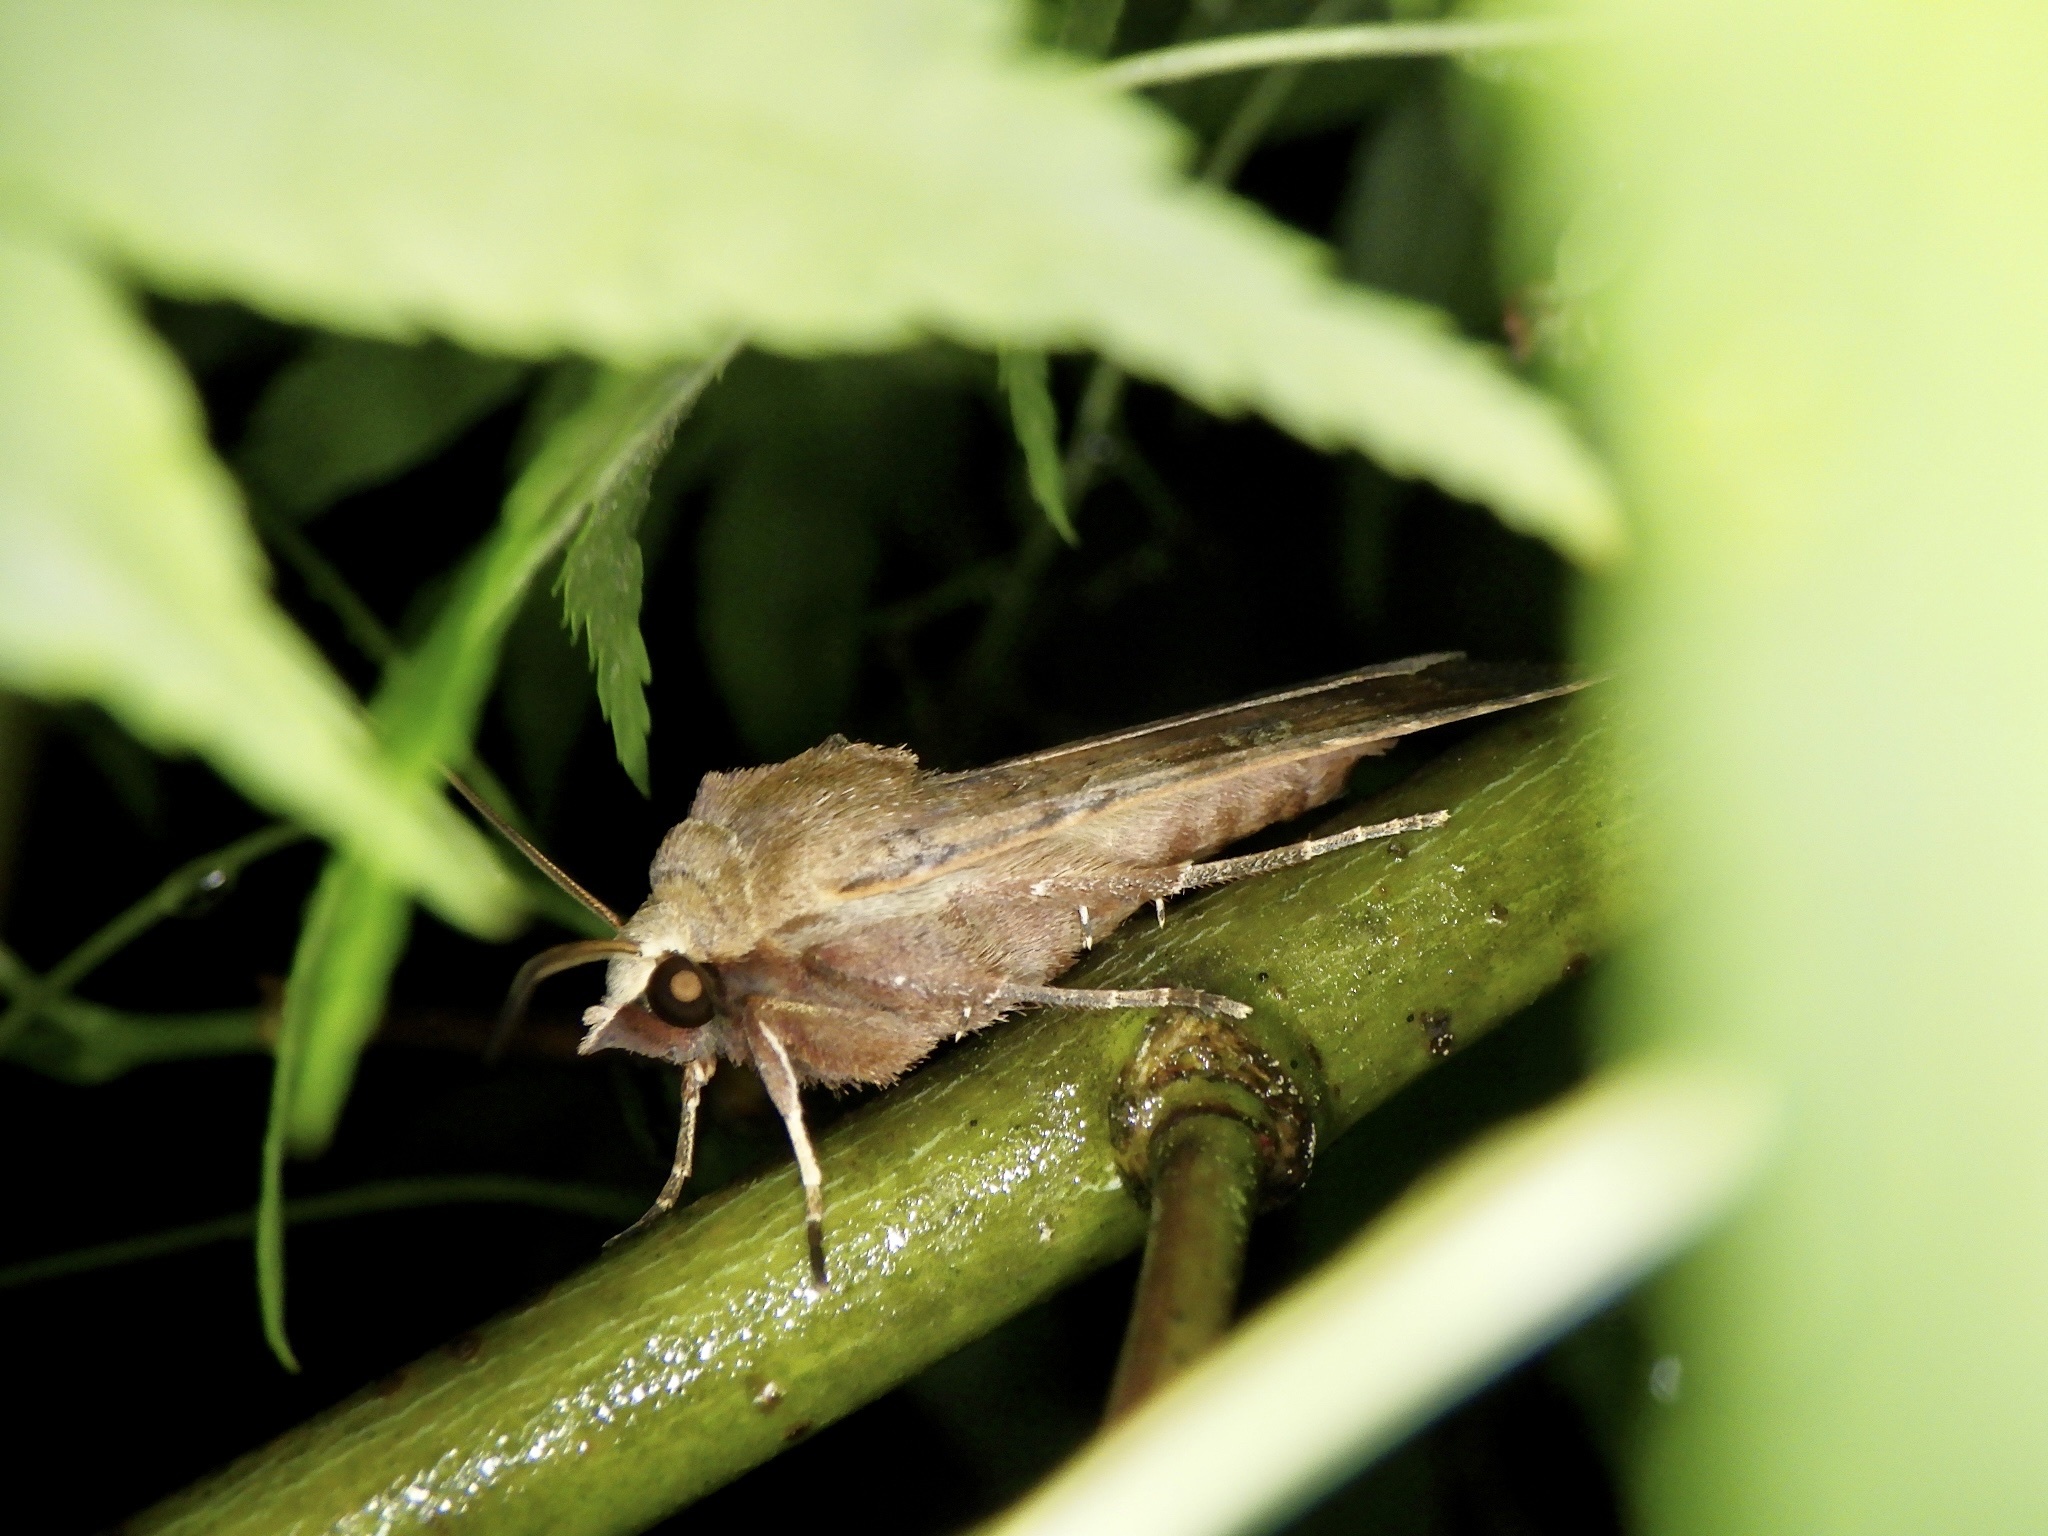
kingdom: Animalia
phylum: Arthropoda
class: Insecta
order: Lepidoptera
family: Noctuidae
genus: Diarsia
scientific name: Diarsia canescens
